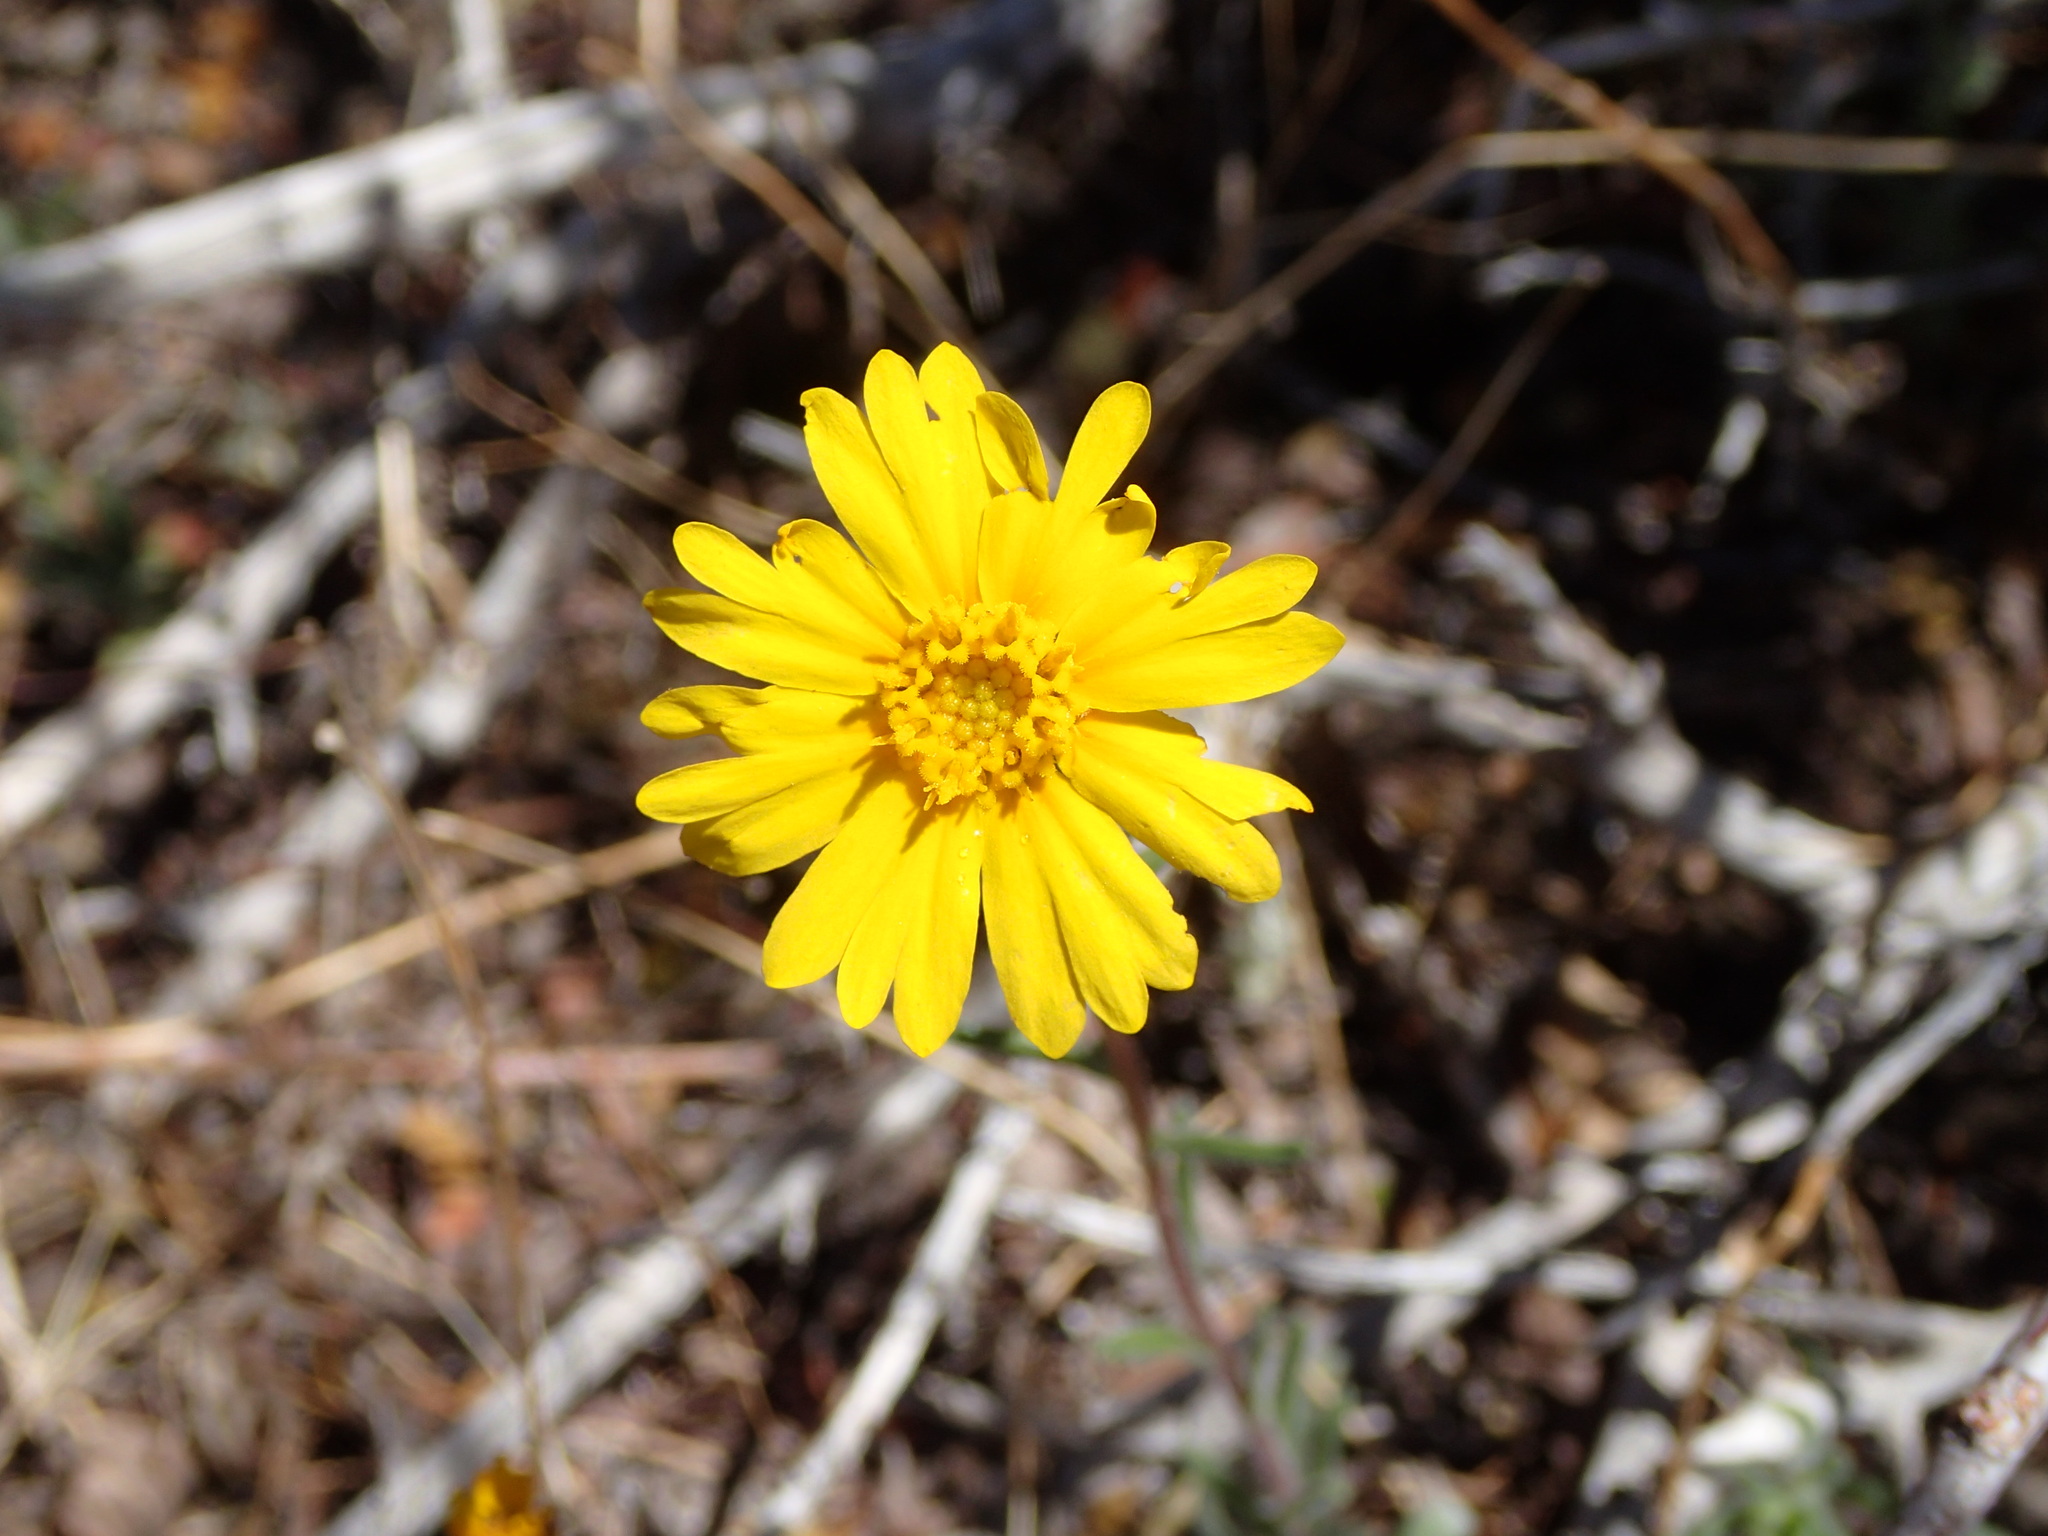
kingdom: Plantae
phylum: Tracheophyta
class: Magnoliopsida
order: Asterales
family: Asteraceae
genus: Madia
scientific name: Madia elegans
